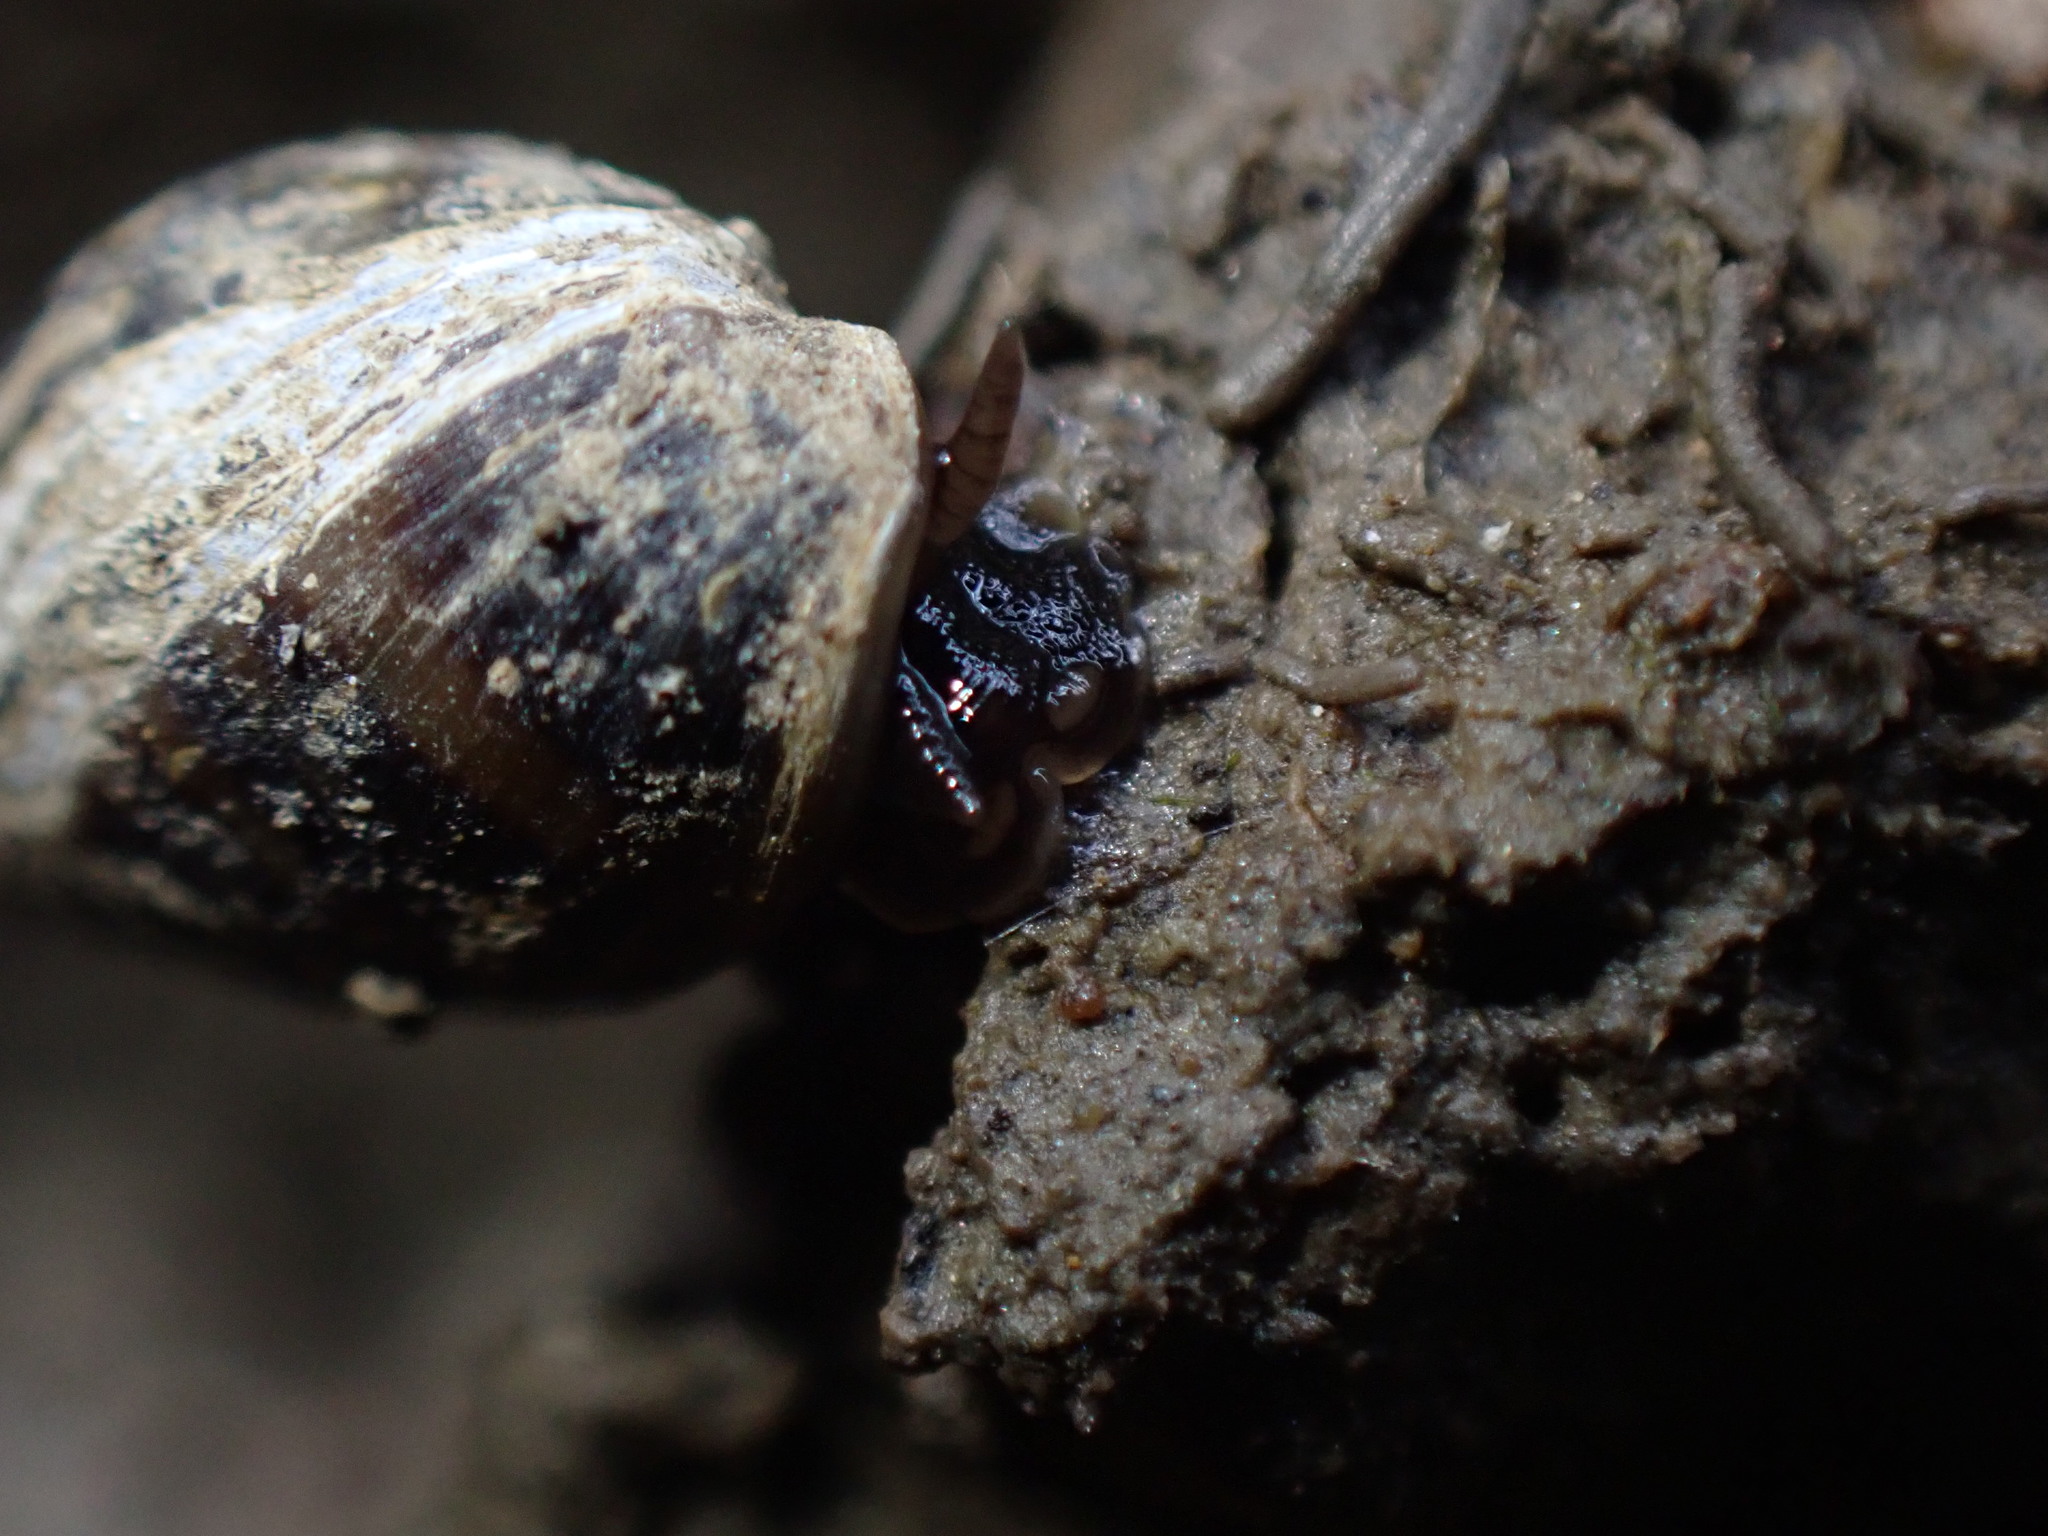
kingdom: Animalia
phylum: Mollusca
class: Gastropoda
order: Ellobiida
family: Ellobiidae
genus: Pleuroloba
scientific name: Pleuroloba costellaris
